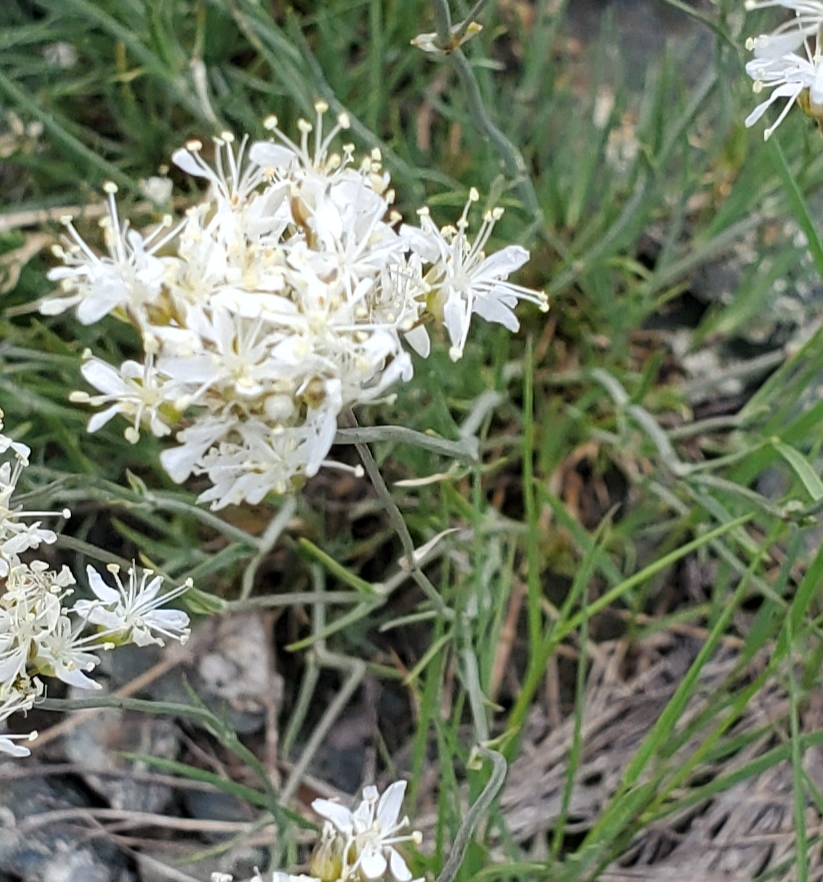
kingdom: Plantae
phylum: Tracheophyta
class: Magnoliopsida
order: Caryophyllales
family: Caryophyllaceae
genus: Eremogone
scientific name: Eremogone congesta
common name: Ballhead sandwort
